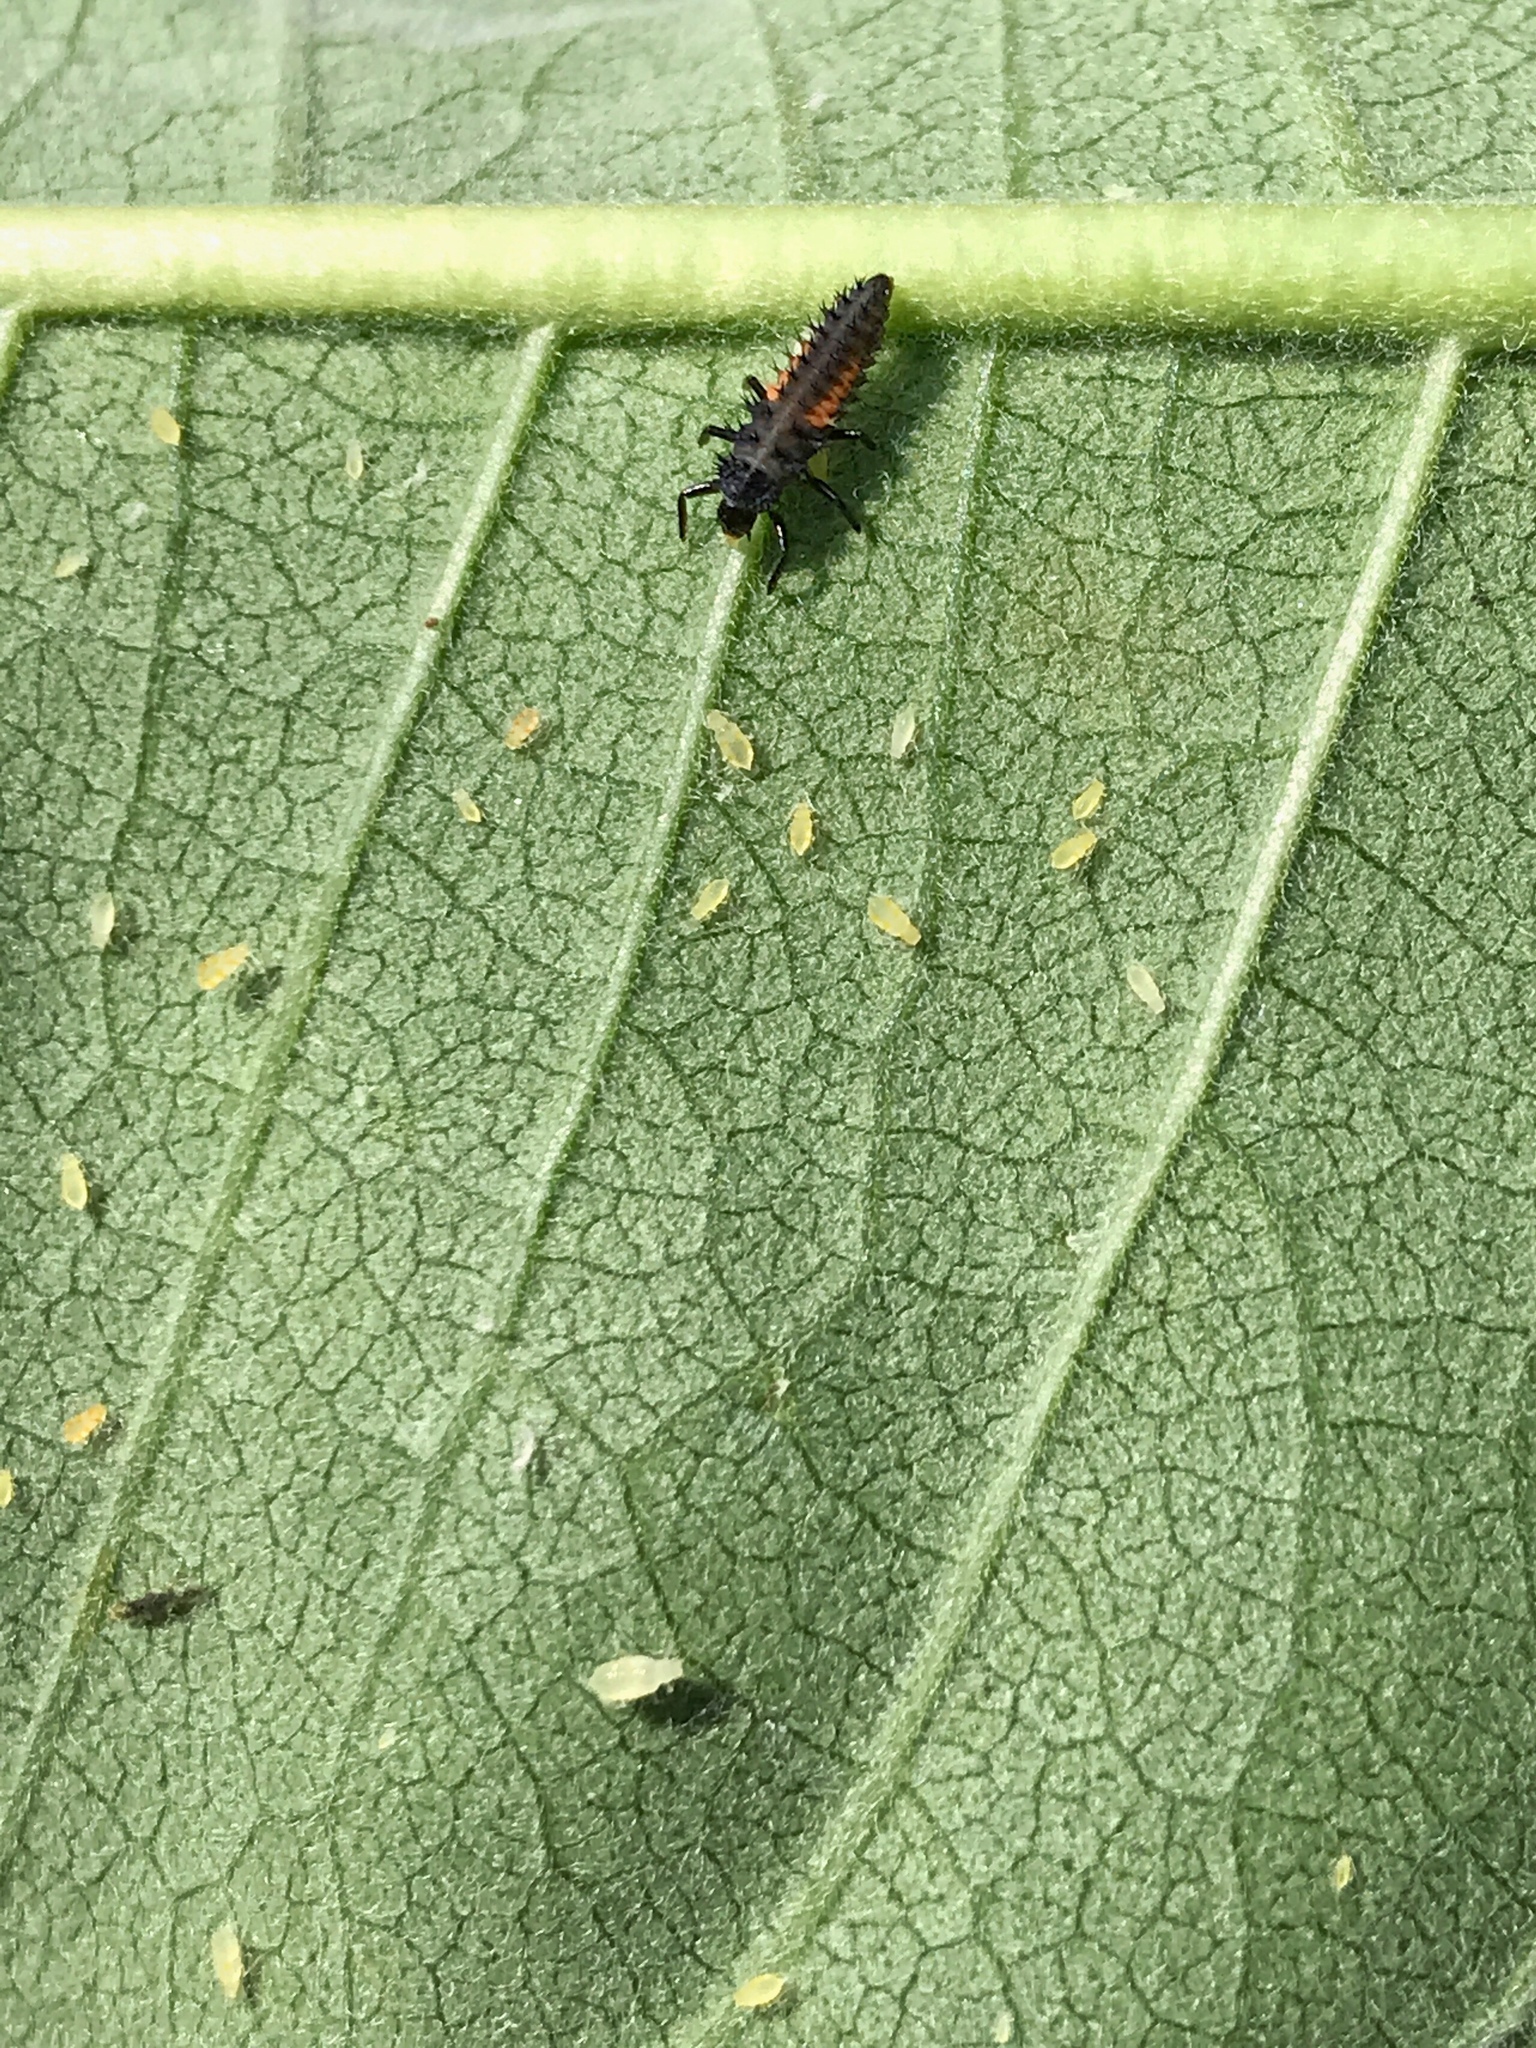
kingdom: Animalia
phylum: Arthropoda
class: Insecta
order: Coleoptera
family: Coccinellidae
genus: Harmonia
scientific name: Harmonia axyridis
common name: Harlequin ladybird
